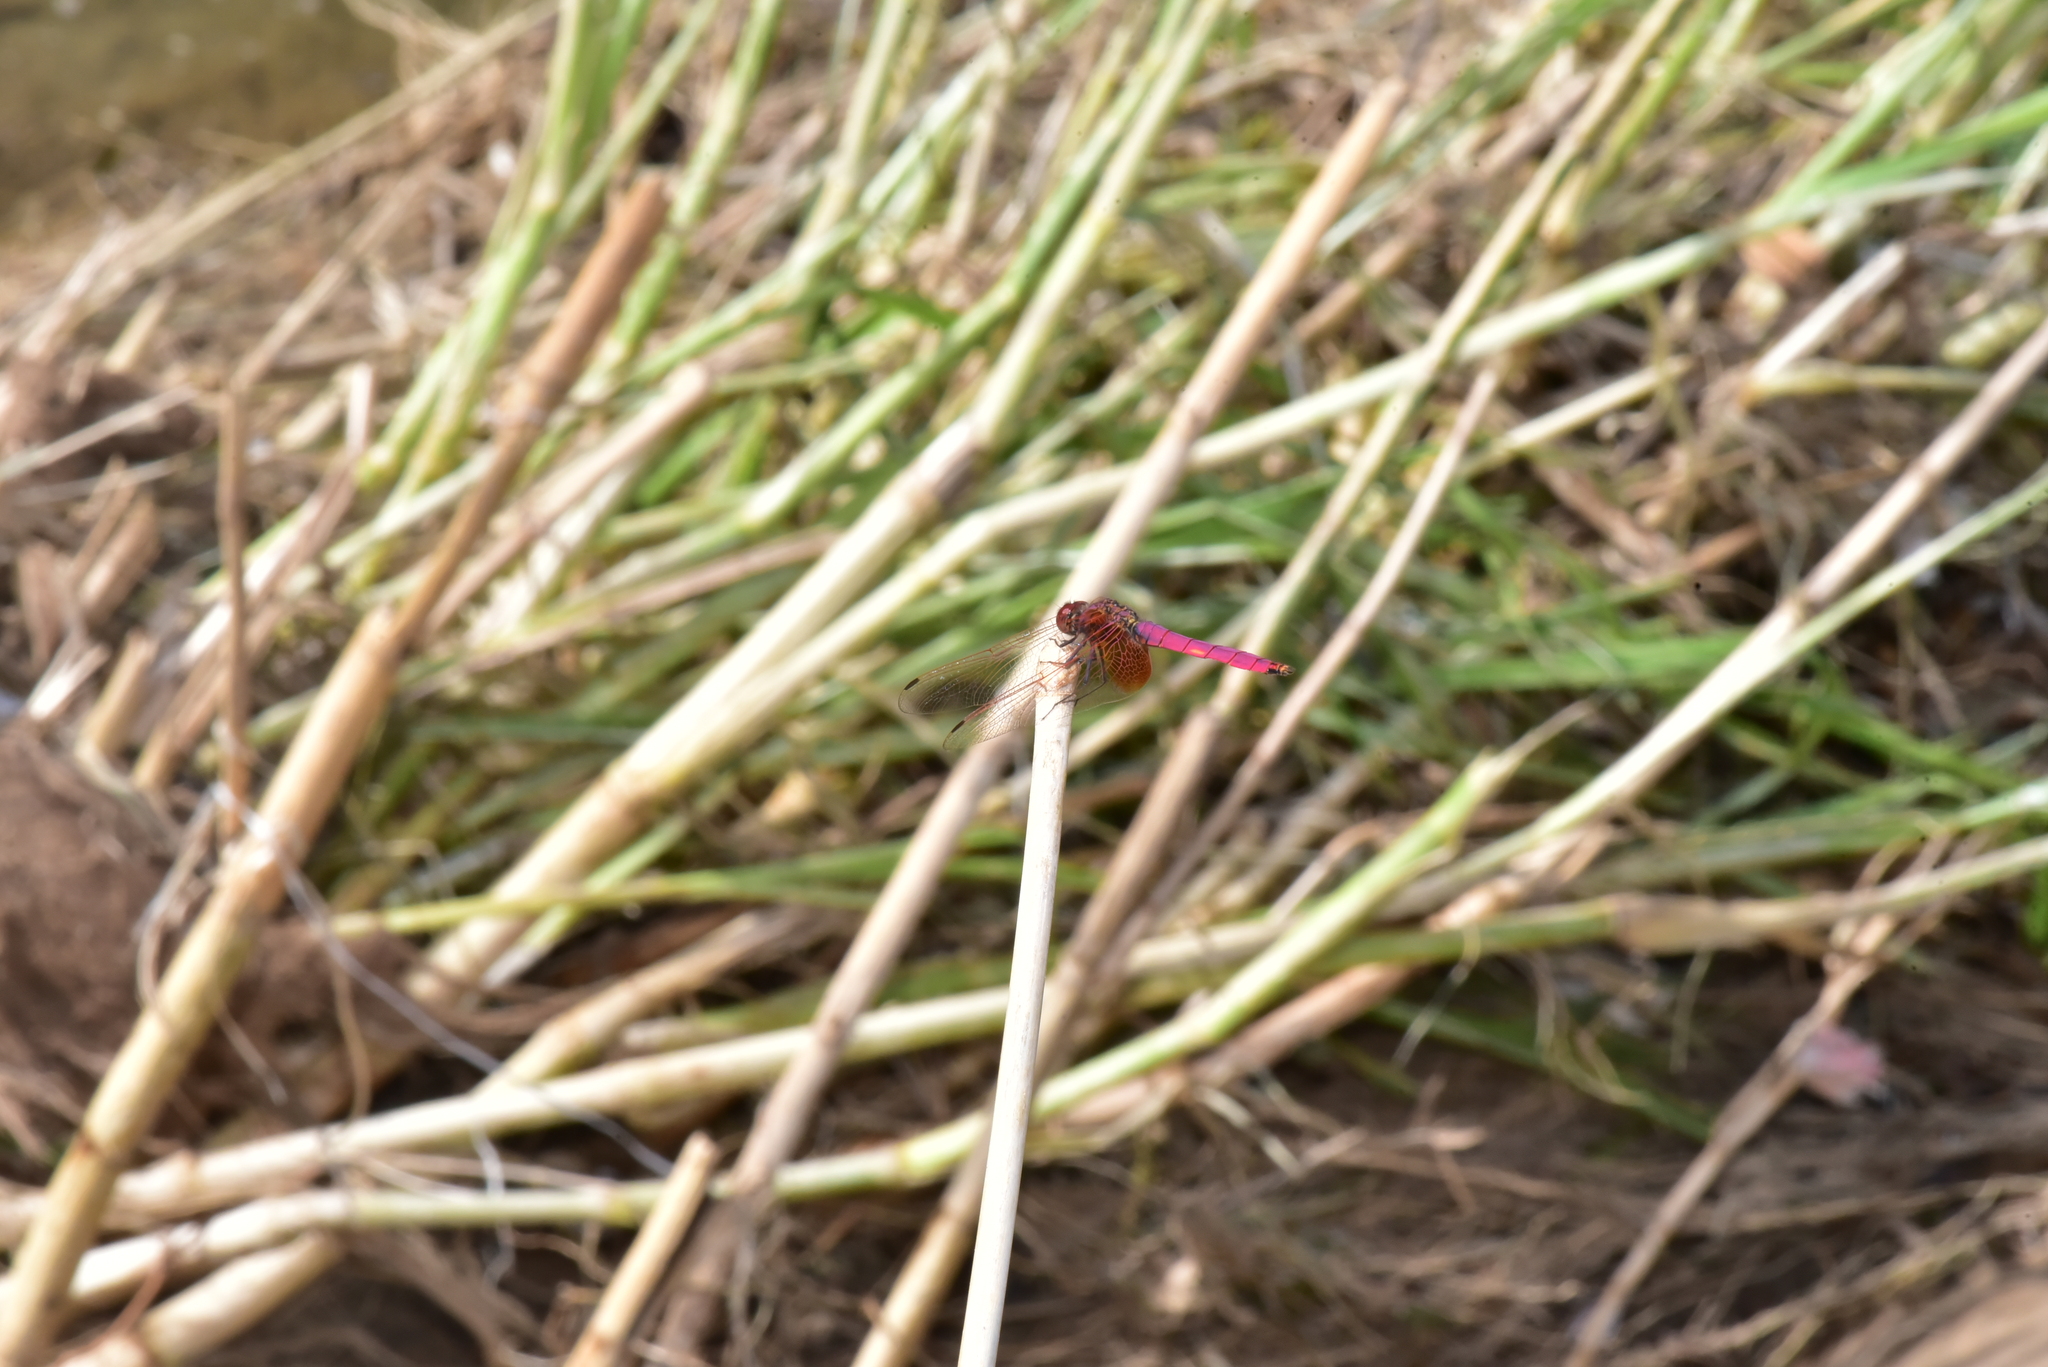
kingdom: Animalia
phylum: Arthropoda
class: Insecta
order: Odonata
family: Libellulidae
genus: Trithemis
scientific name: Trithemis aurora
